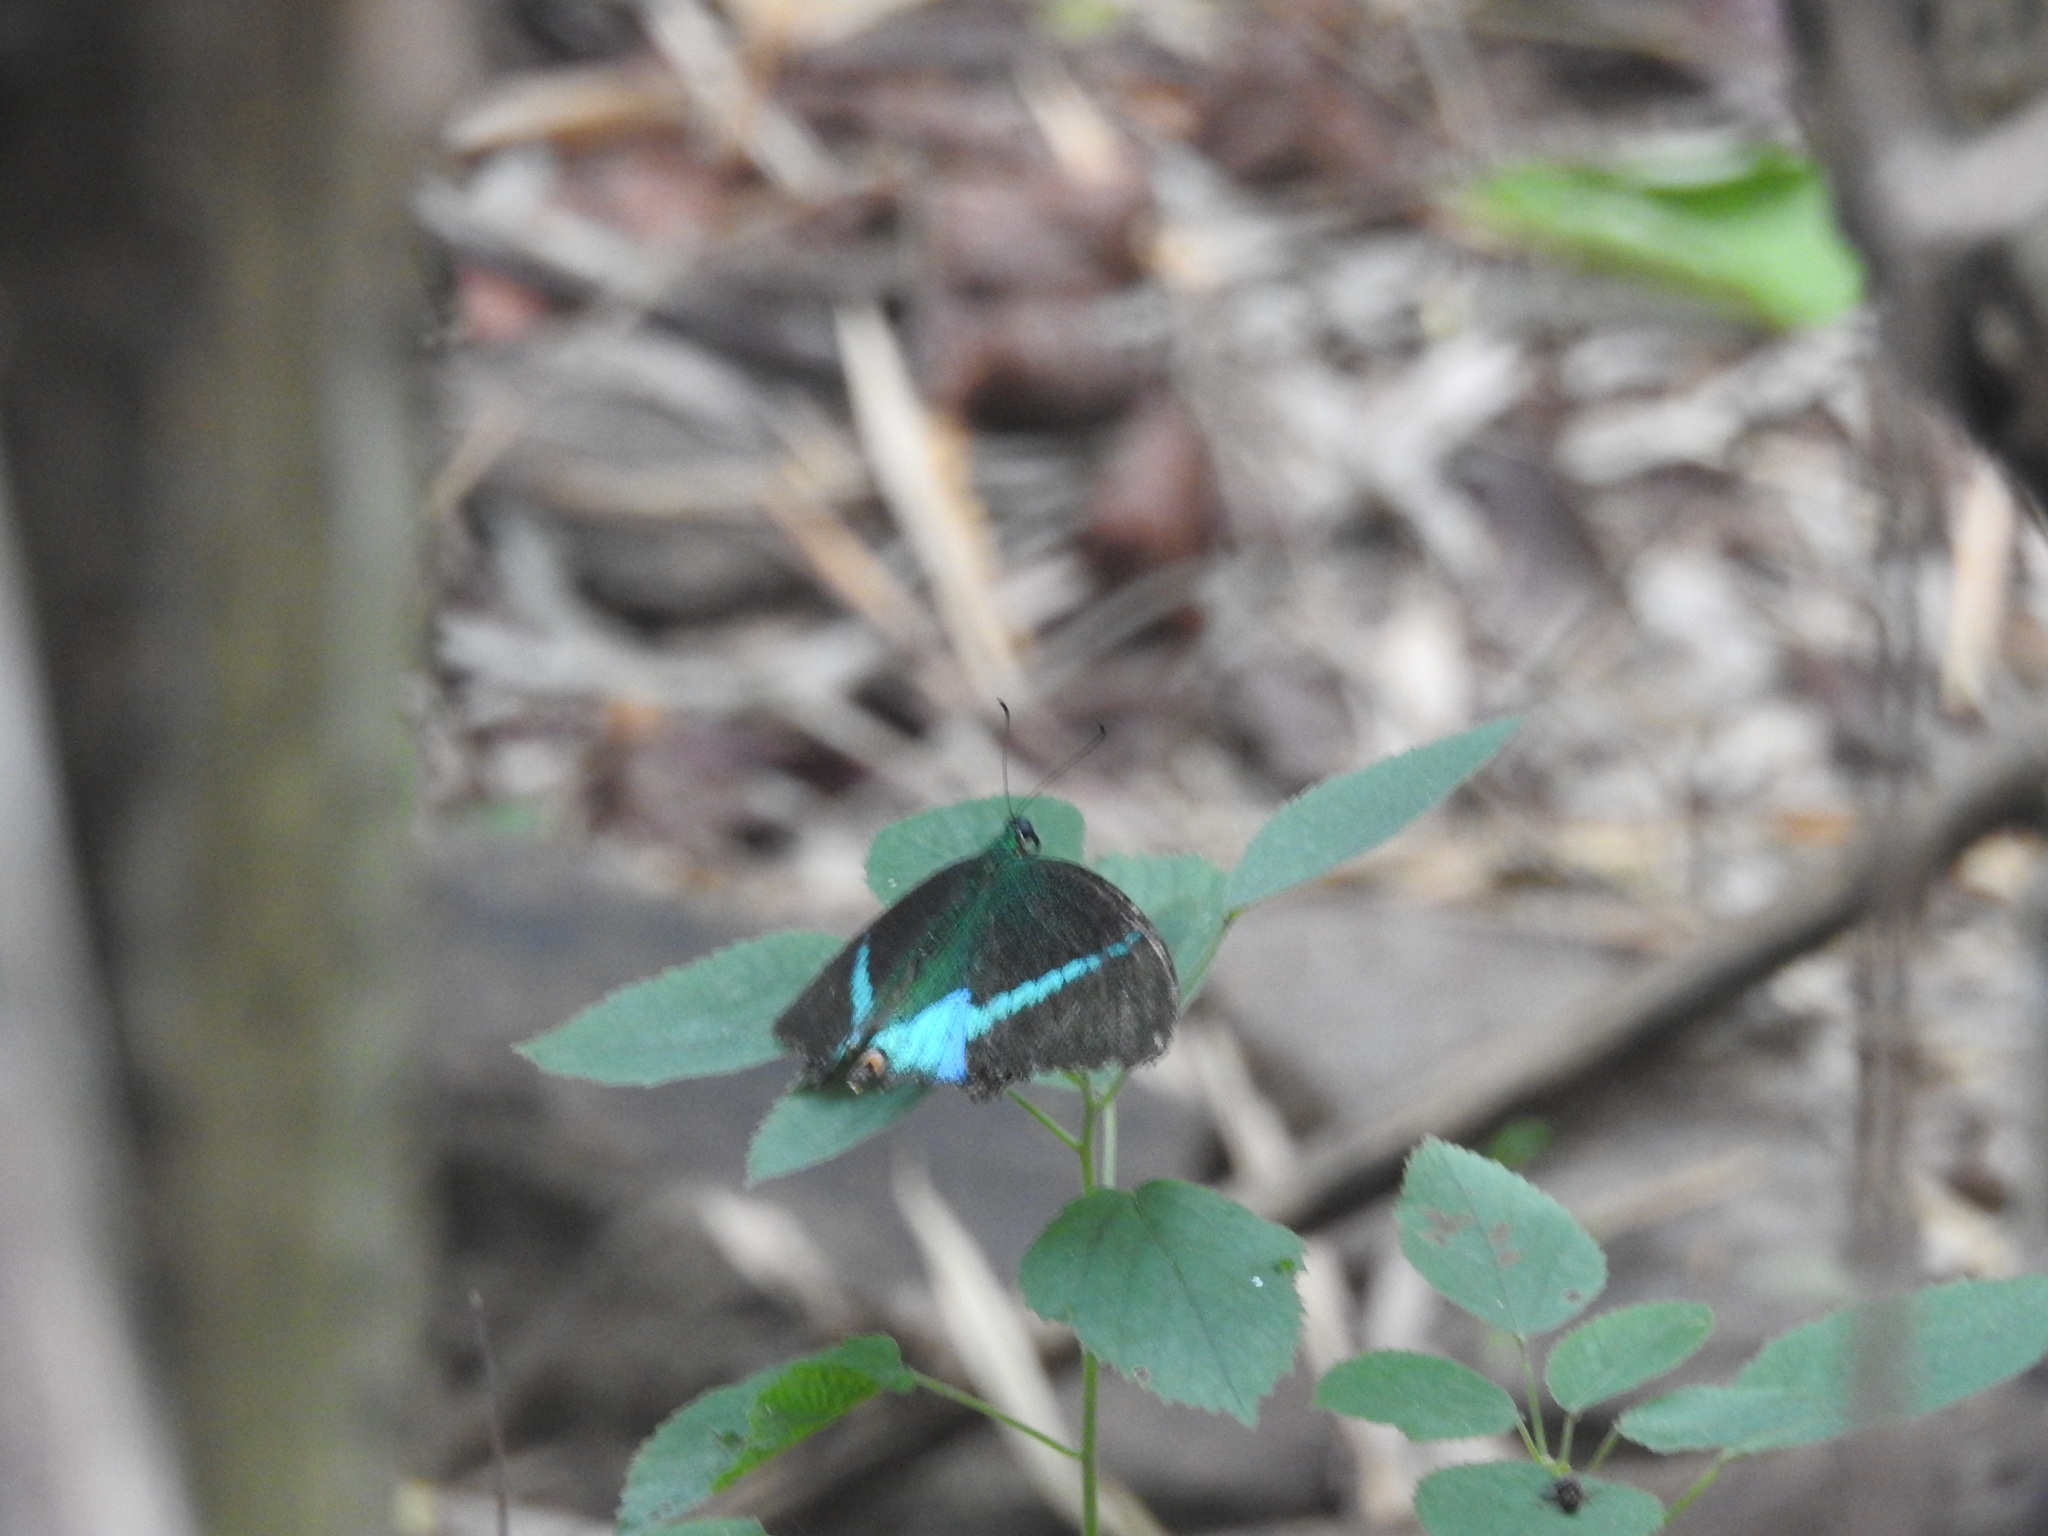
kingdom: Animalia
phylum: Arthropoda
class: Insecta
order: Lepidoptera
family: Papilionidae
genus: Papilio
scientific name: Papilio crino
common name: Common banded peacock
